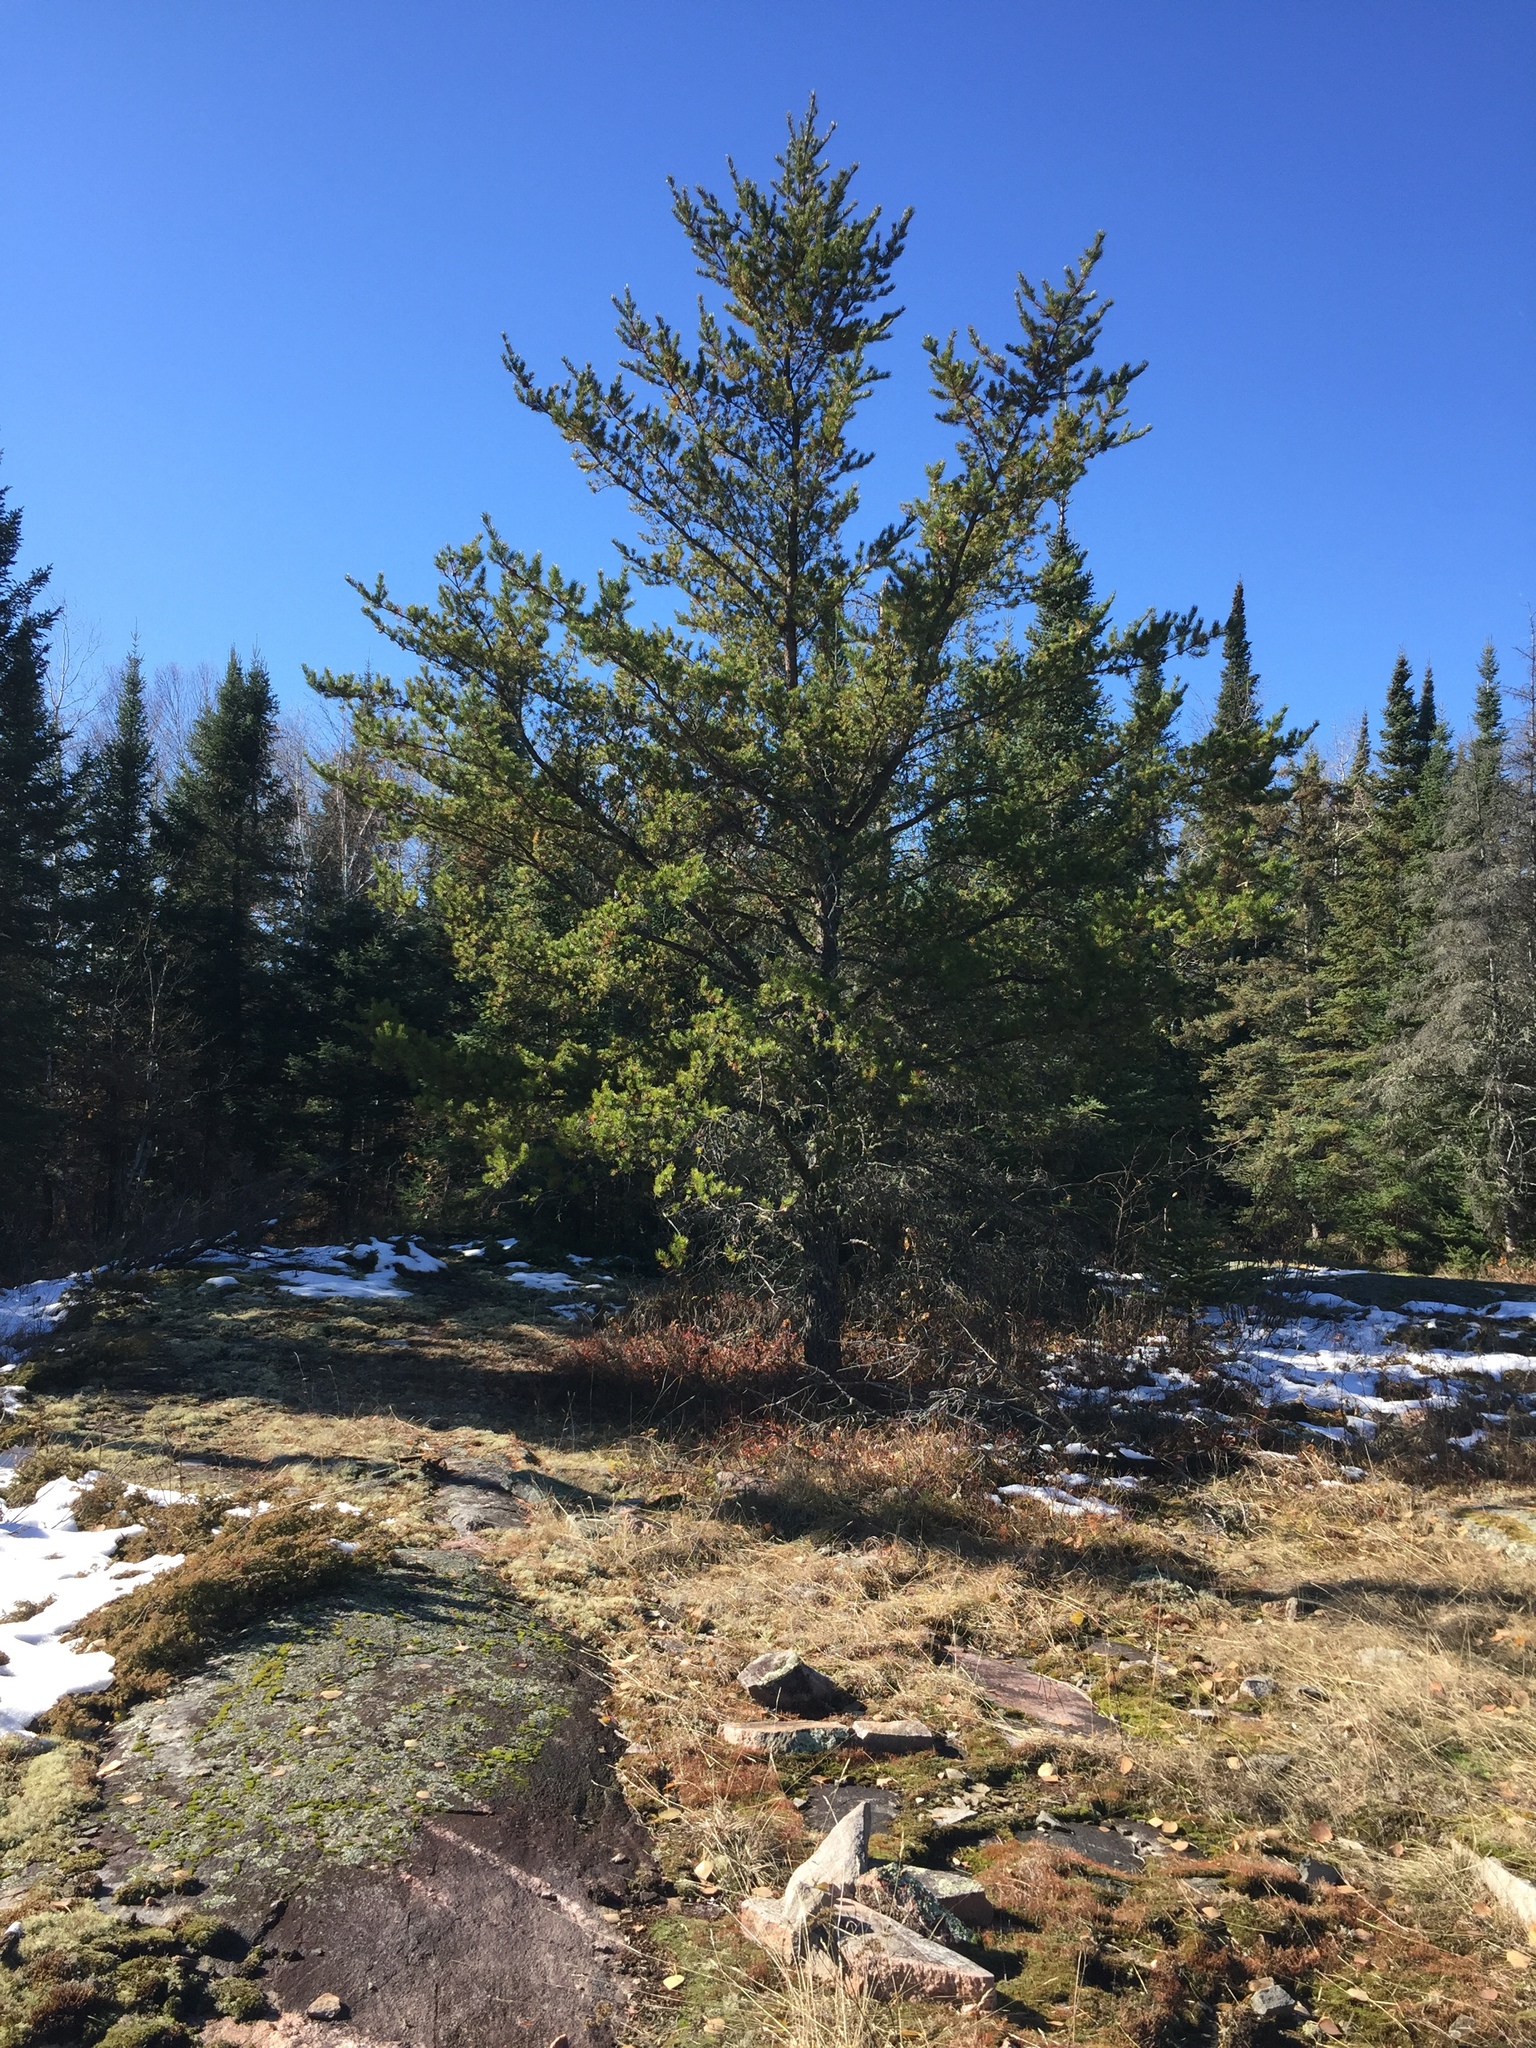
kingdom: Plantae
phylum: Tracheophyta
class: Pinopsida
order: Pinales
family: Pinaceae
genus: Pinus
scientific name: Pinus banksiana
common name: Jack pine
